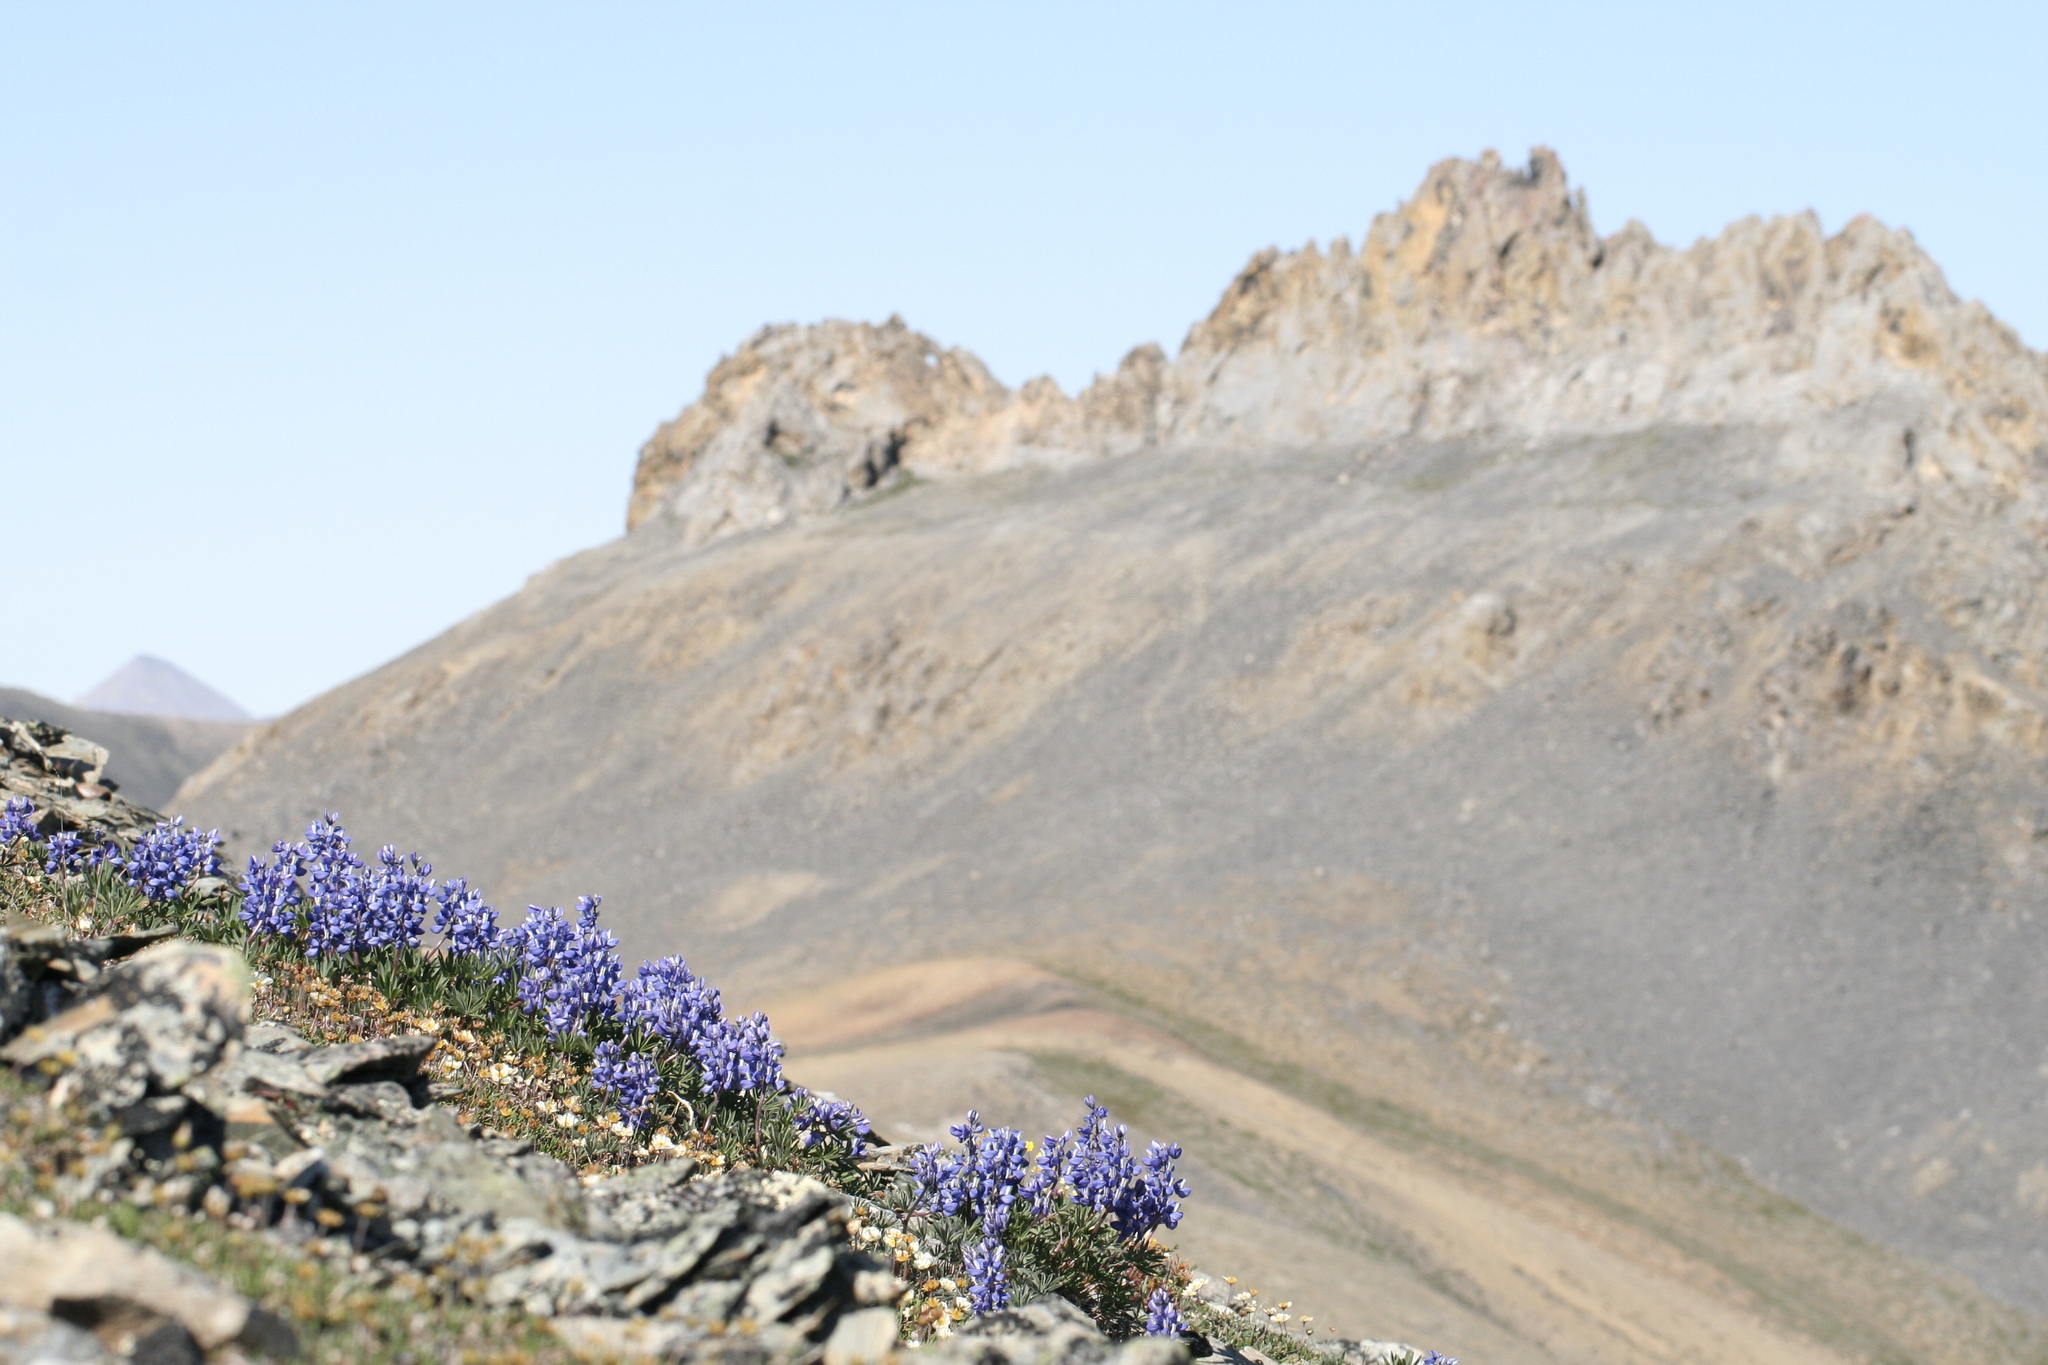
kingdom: Plantae
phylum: Tracheophyta
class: Magnoliopsida
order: Fabales
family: Fabaceae
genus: Lupinus
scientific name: Lupinus arcticus
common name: Arctic lupine
